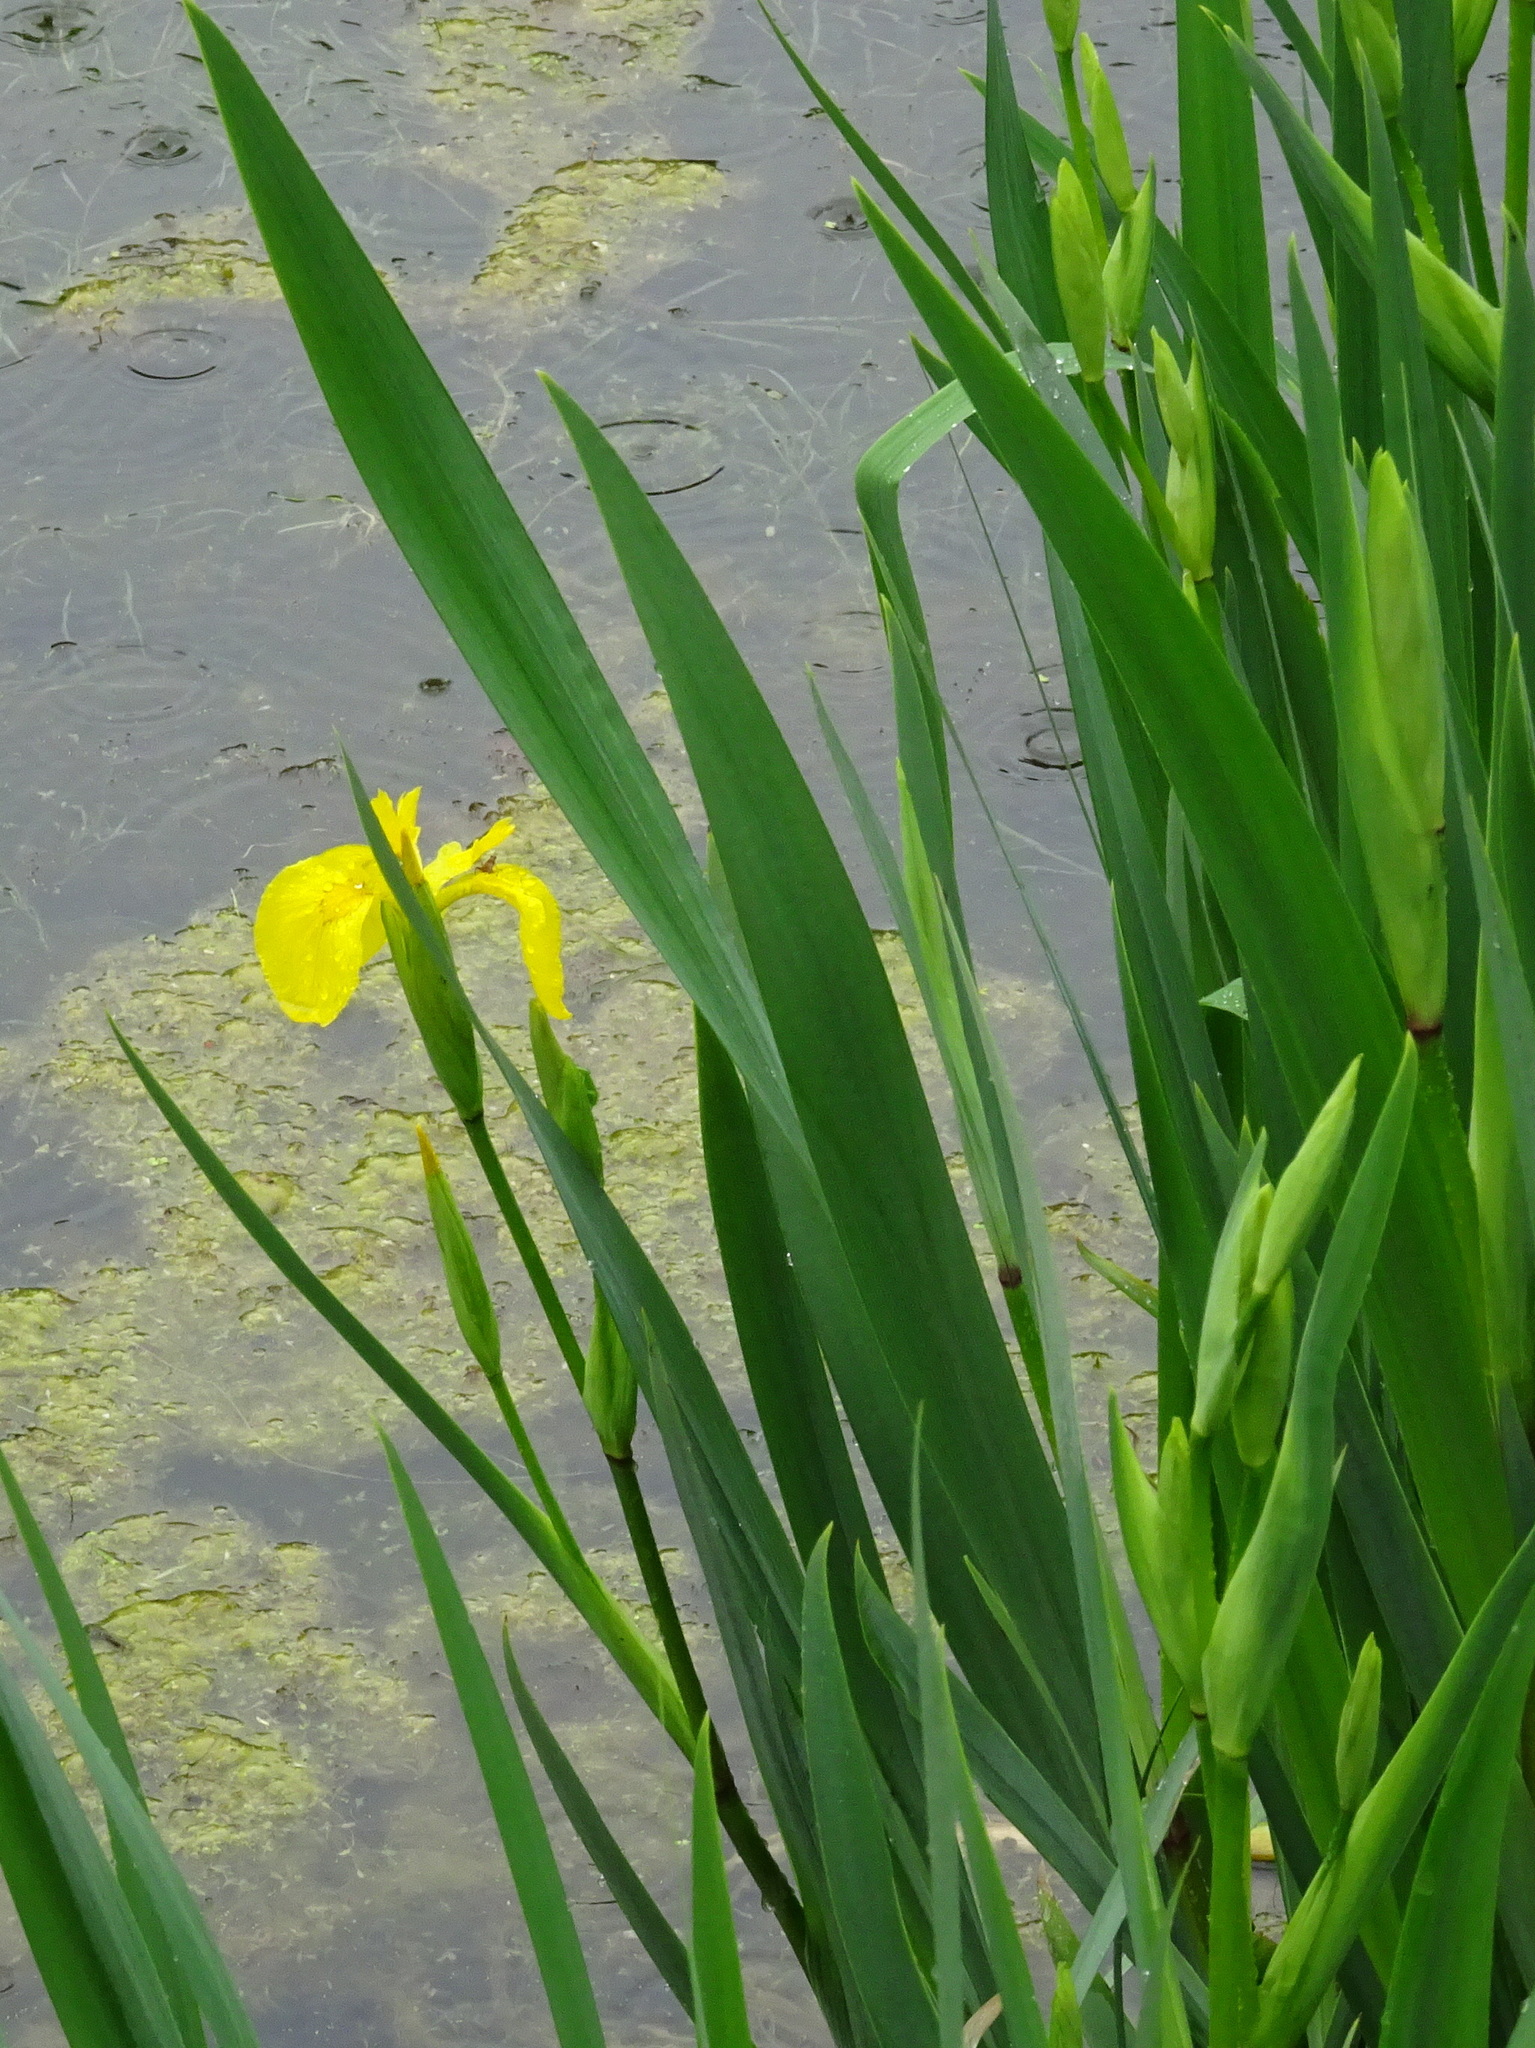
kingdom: Plantae
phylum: Tracheophyta
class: Liliopsida
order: Asparagales
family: Iridaceae
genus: Iris
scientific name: Iris pseudacorus
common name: Yellow flag
